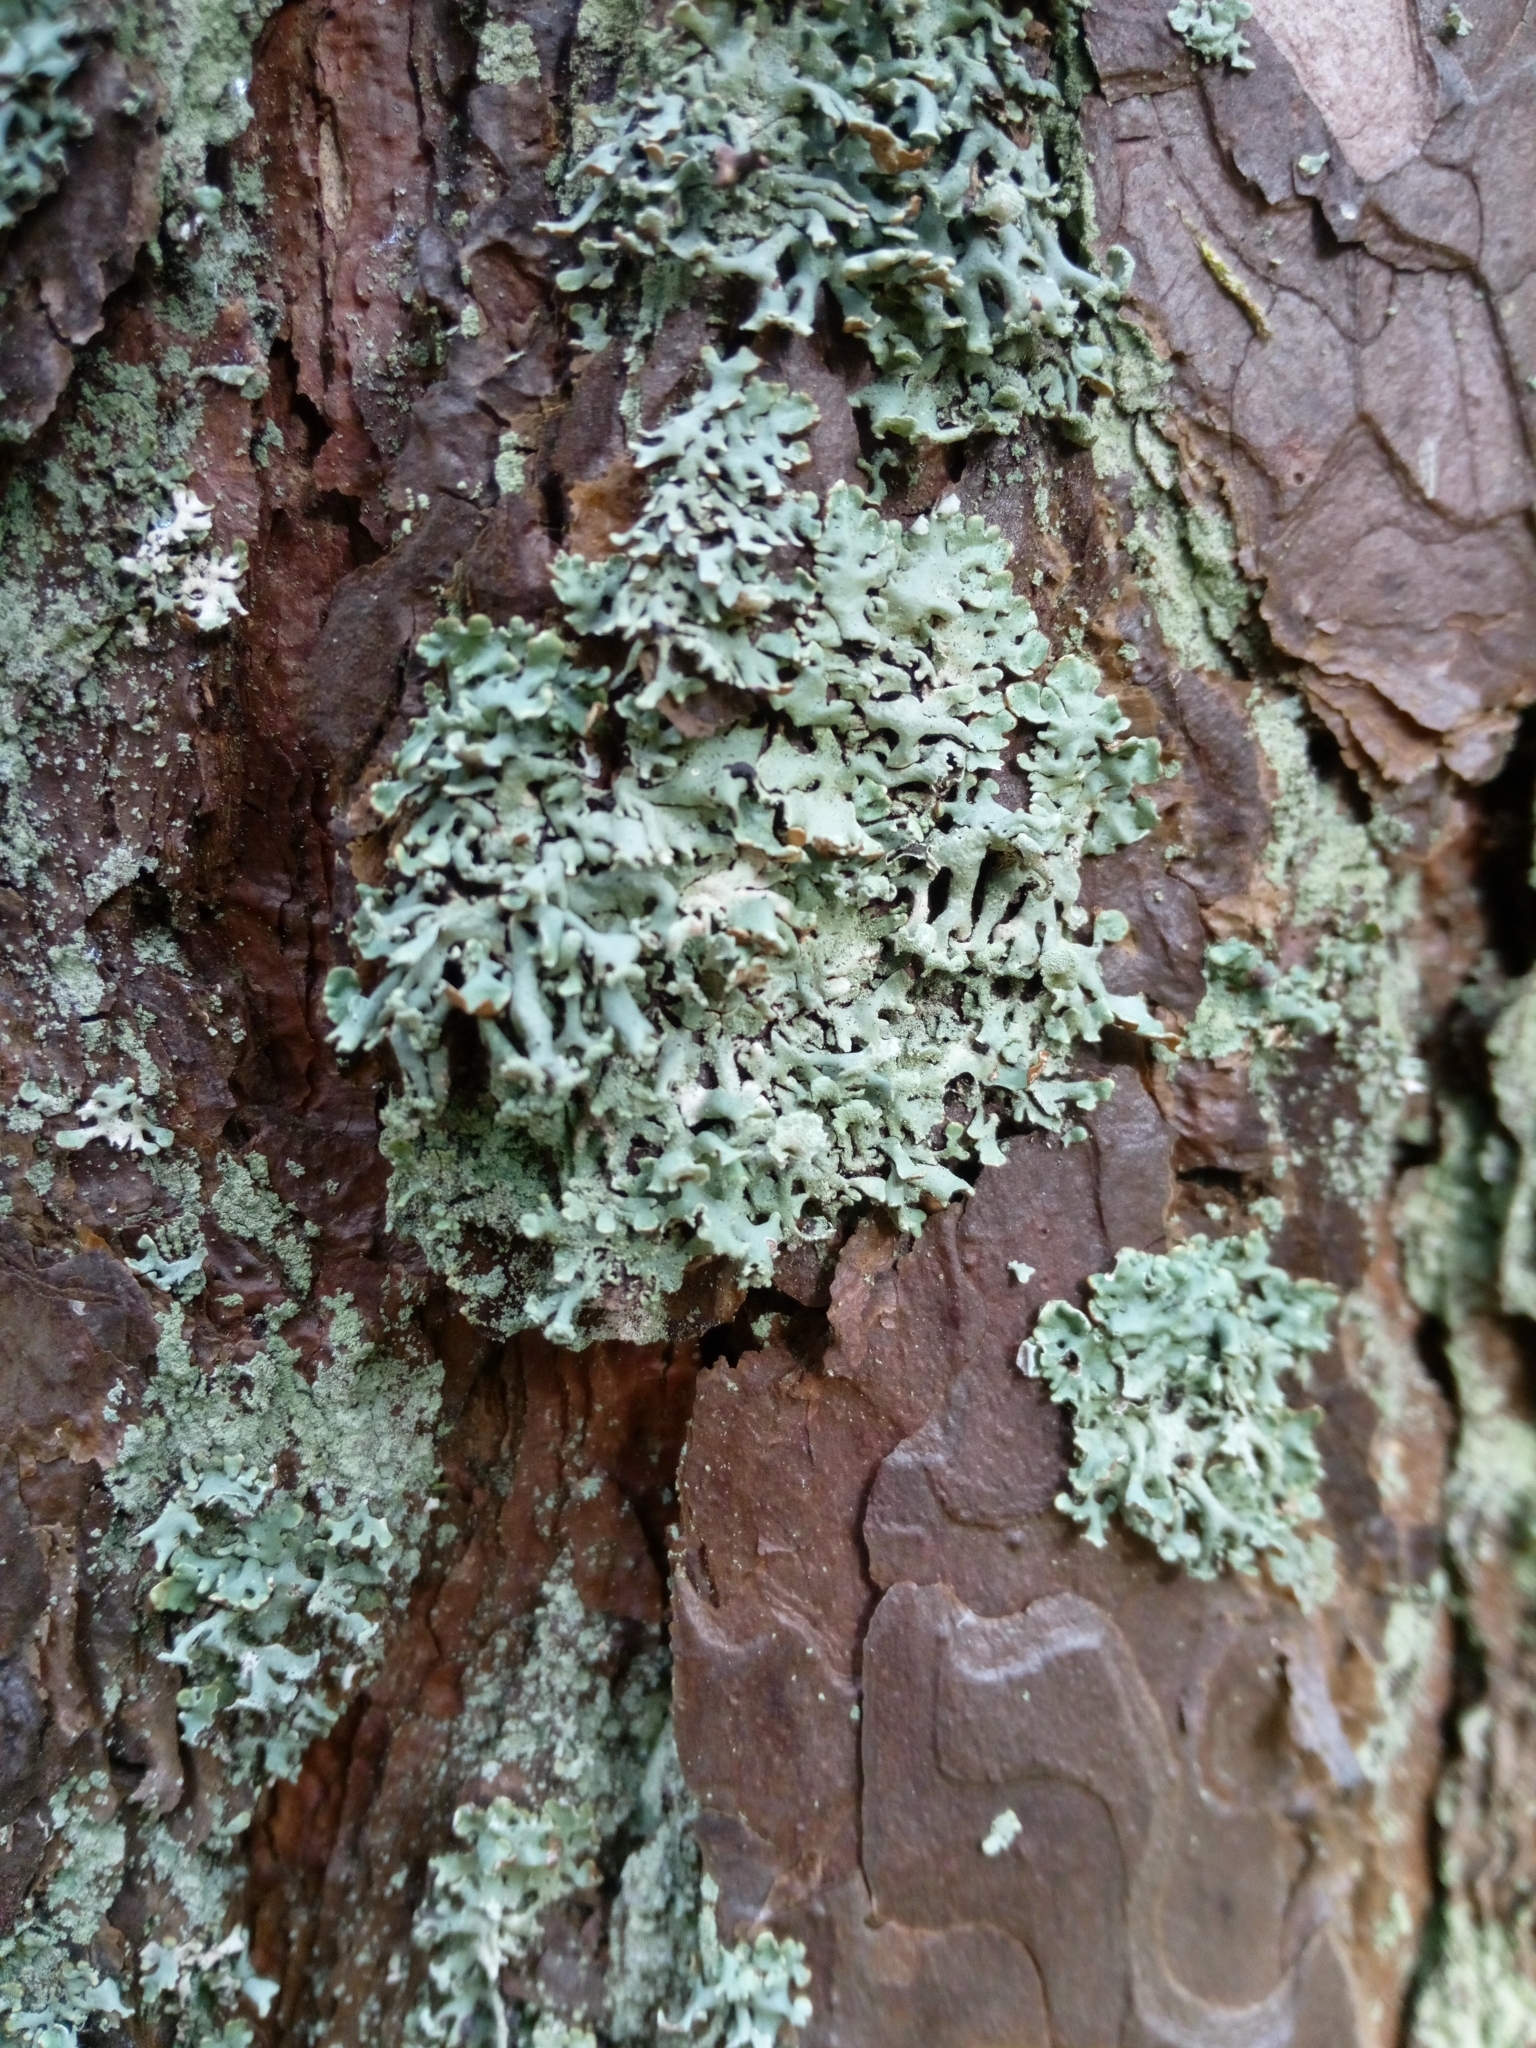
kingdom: Fungi
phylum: Ascomycota
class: Lecanoromycetes
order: Lecanorales
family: Parmeliaceae
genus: Hypogymnia
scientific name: Hypogymnia physodes
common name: Dark crottle
